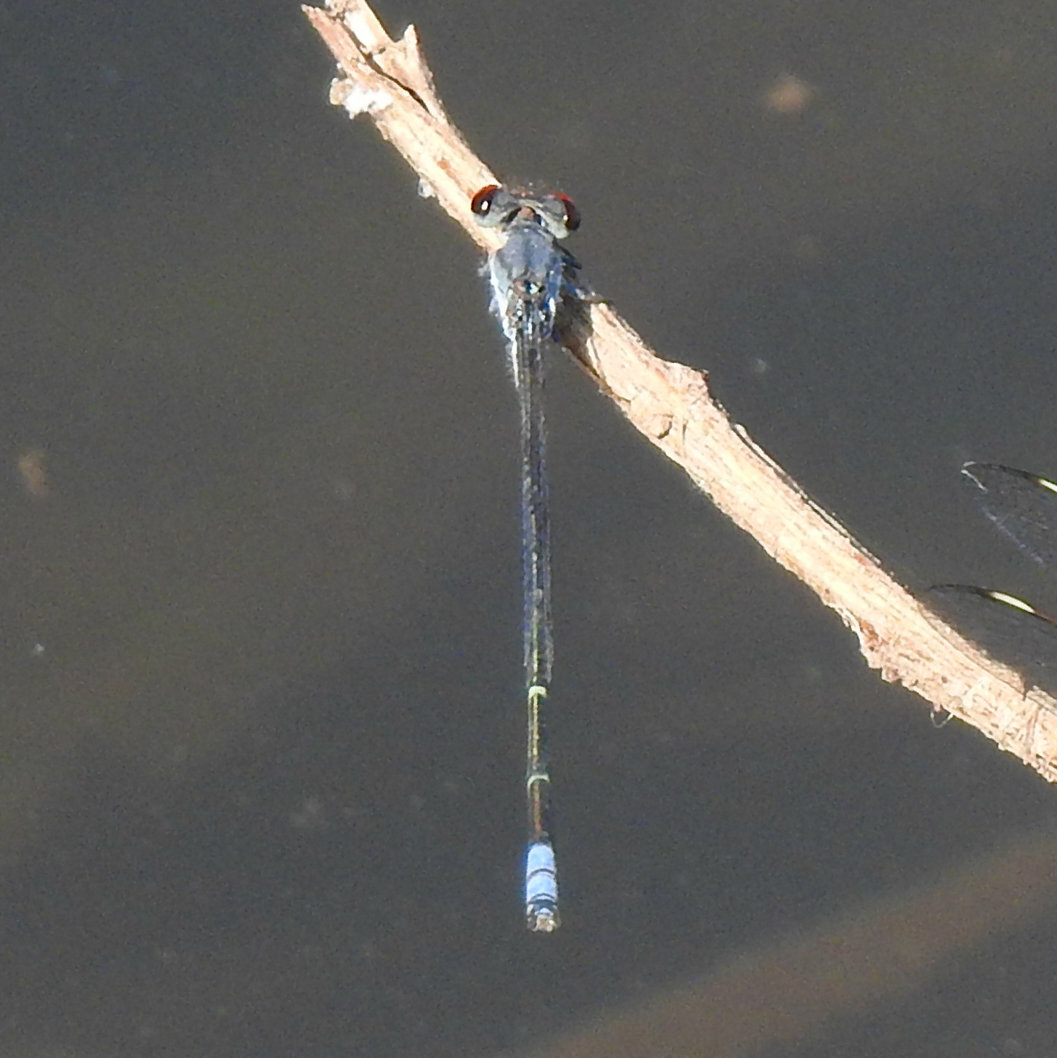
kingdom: Animalia
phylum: Arthropoda
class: Insecta
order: Odonata
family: Coenagrionidae
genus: Pseudagrion
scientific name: Pseudagrion hamoni
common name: Swarthy sprite
